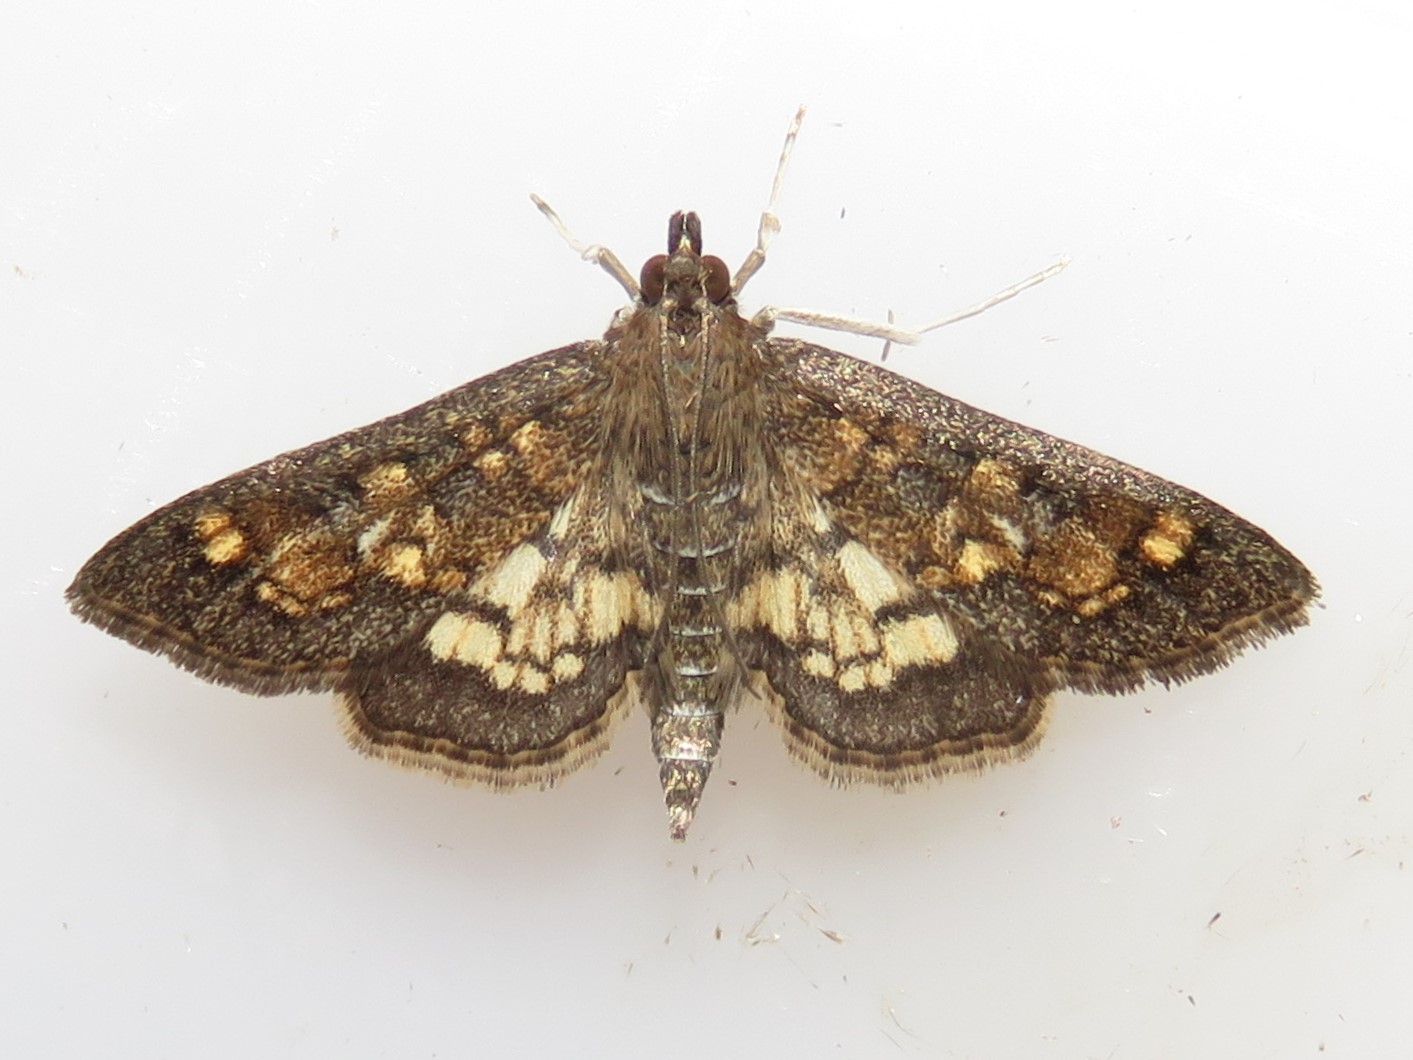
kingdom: Animalia
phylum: Arthropoda
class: Insecta
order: Lepidoptera
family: Crambidae
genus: Epipagis
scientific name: Epipagis adipaloides
